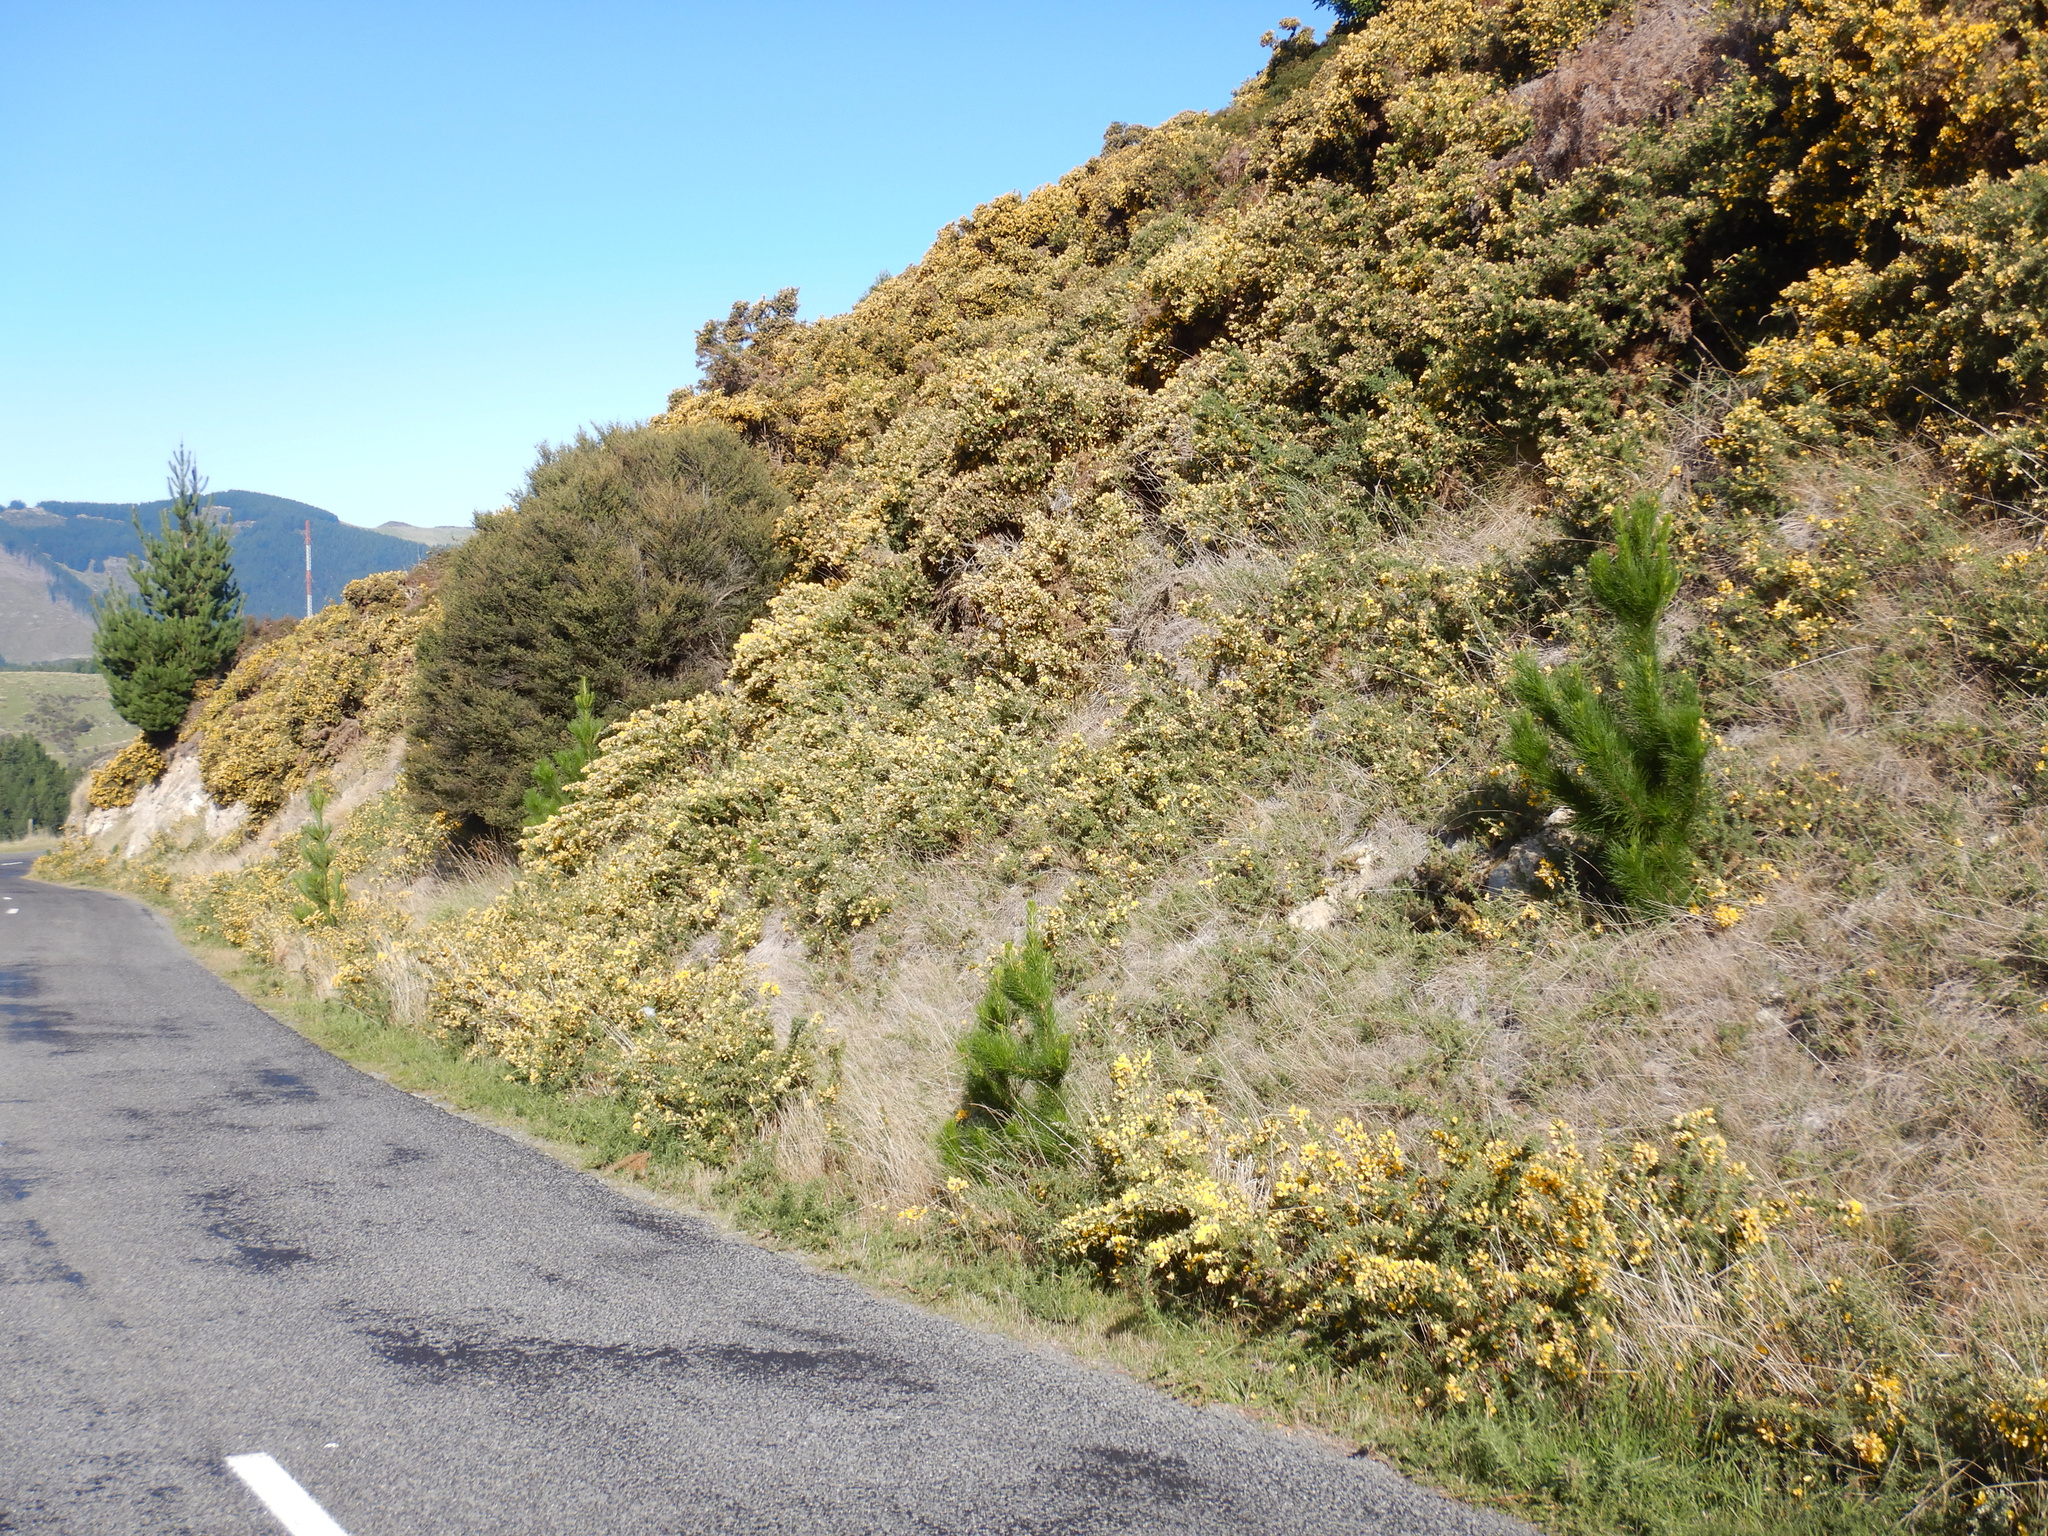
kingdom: Plantae
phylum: Tracheophyta
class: Magnoliopsida
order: Fabales
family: Fabaceae
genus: Ulex
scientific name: Ulex europaeus
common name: Common gorse
